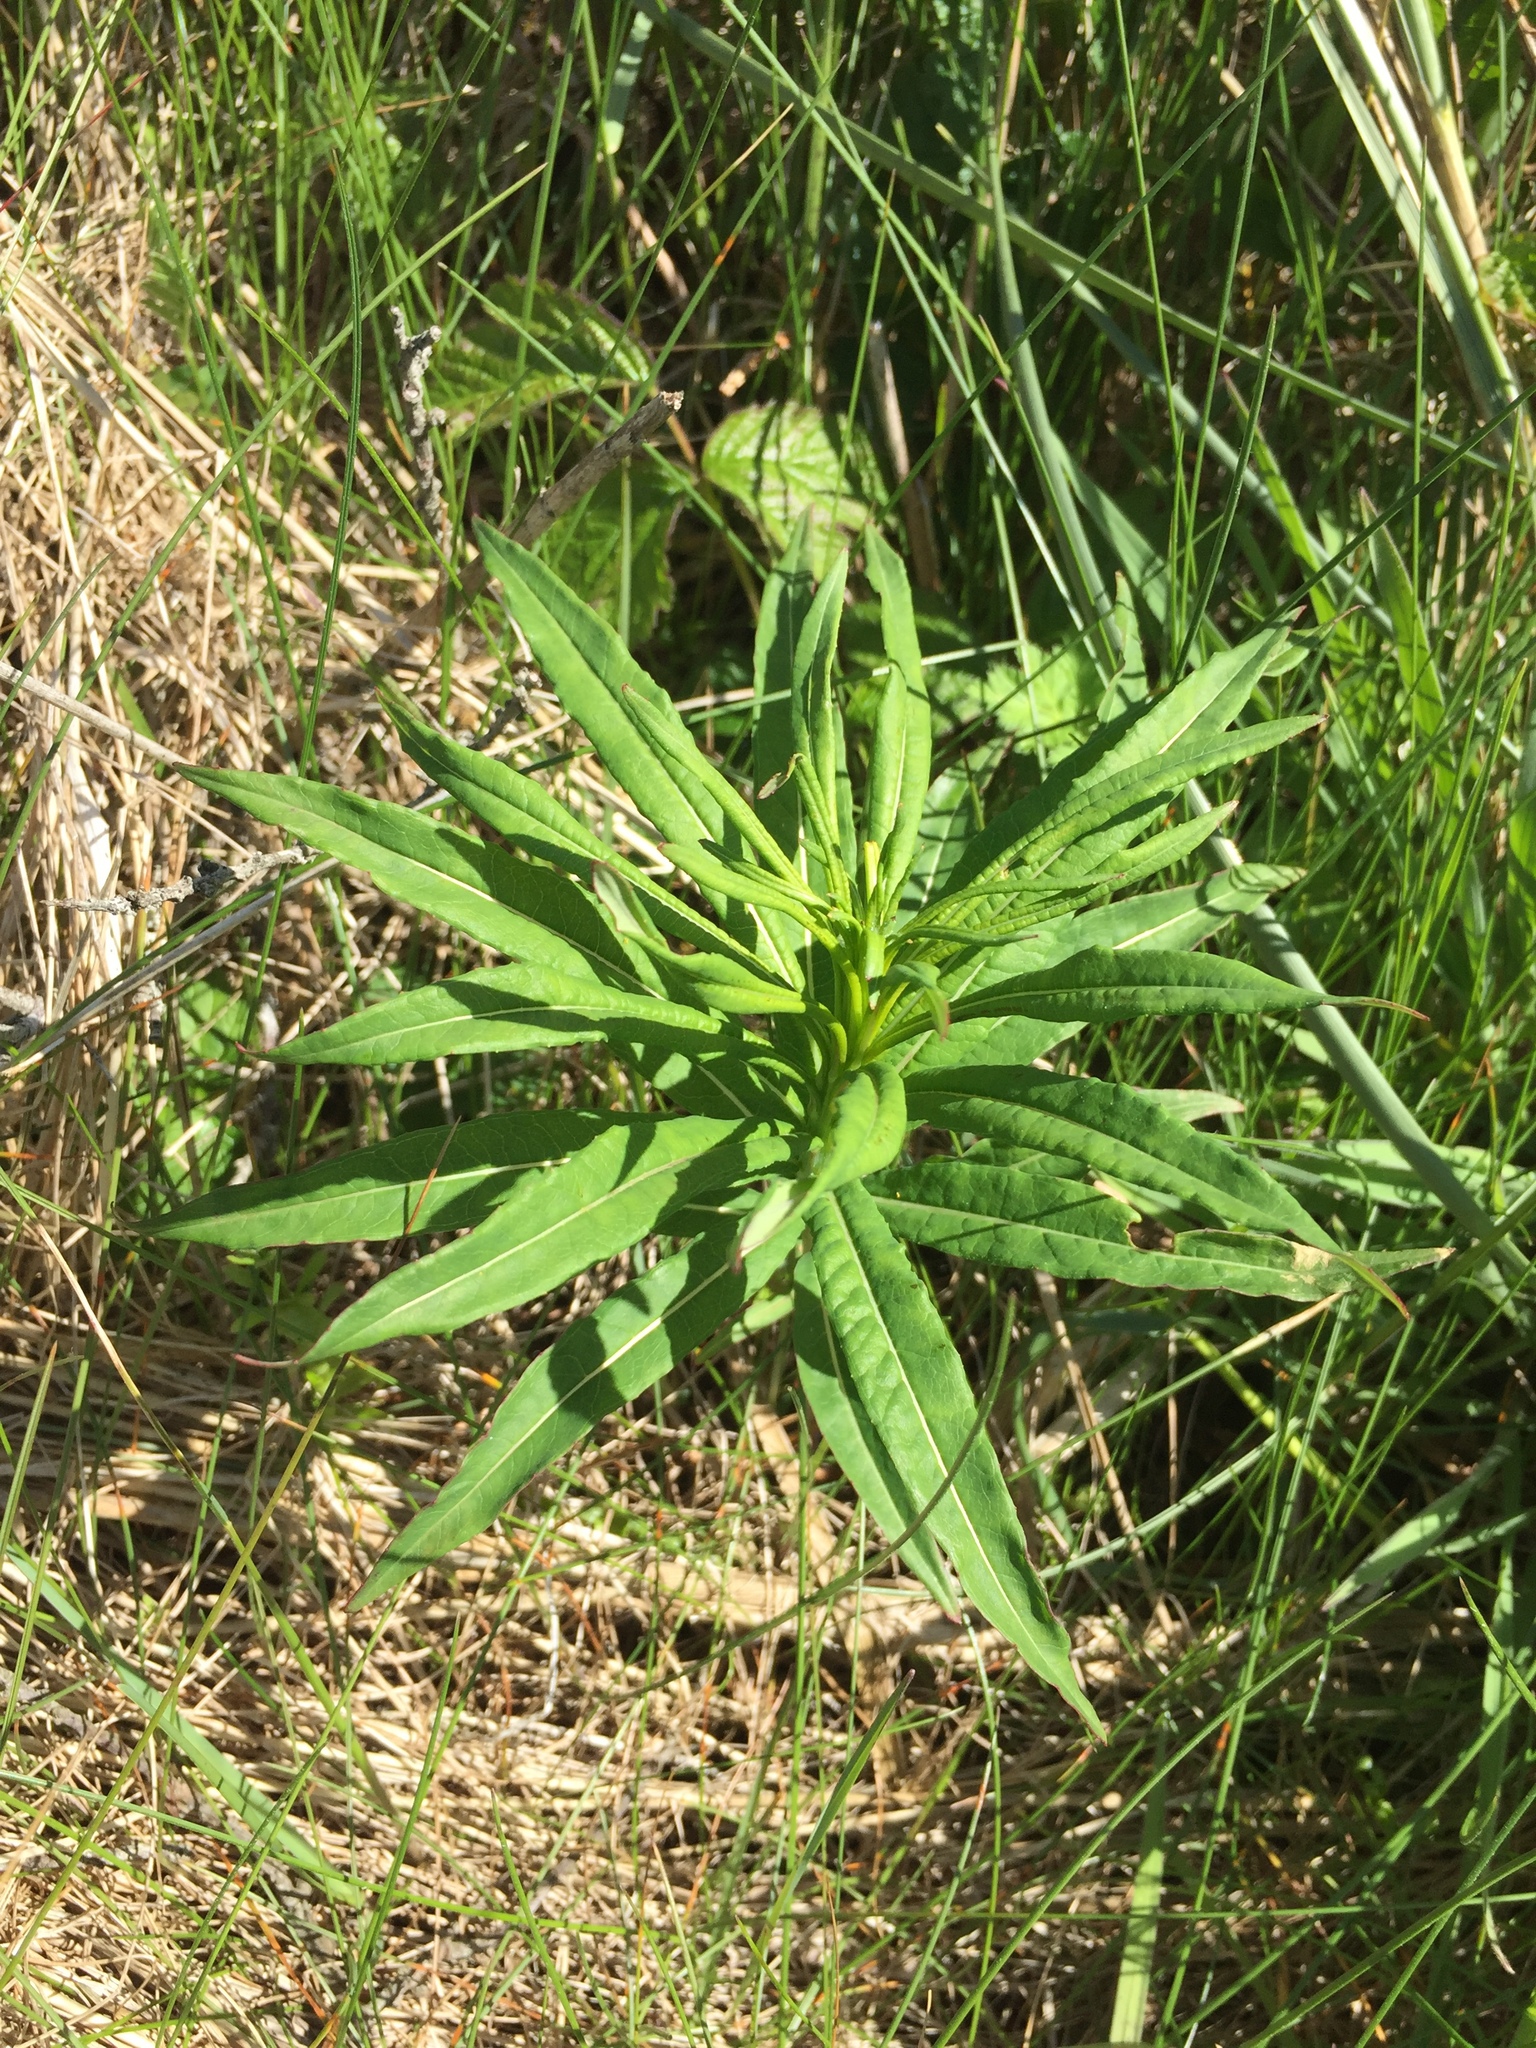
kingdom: Plantae
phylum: Tracheophyta
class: Magnoliopsida
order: Myrtales
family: Onagraceae
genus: Chamaenerion
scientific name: Chamaenerion angustifolium
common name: Fireweed
